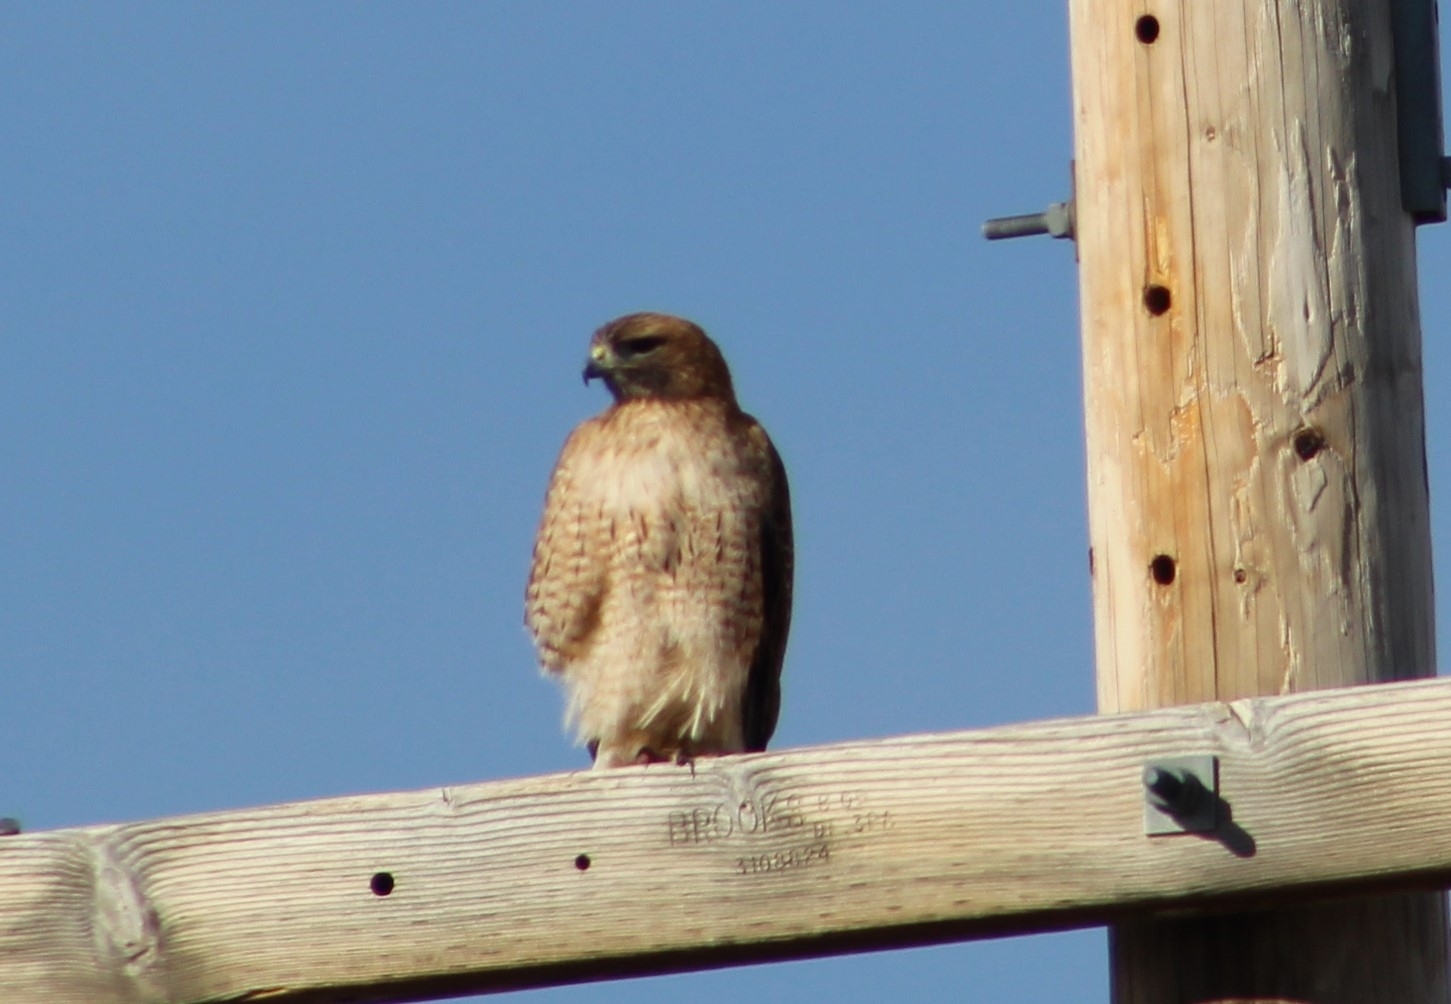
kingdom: Animalia
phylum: Chordata
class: Aves
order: Accipitriformes
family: Accipitridae
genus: Buteo
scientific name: Buteo jamaicensis
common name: Red-tailed hawk
